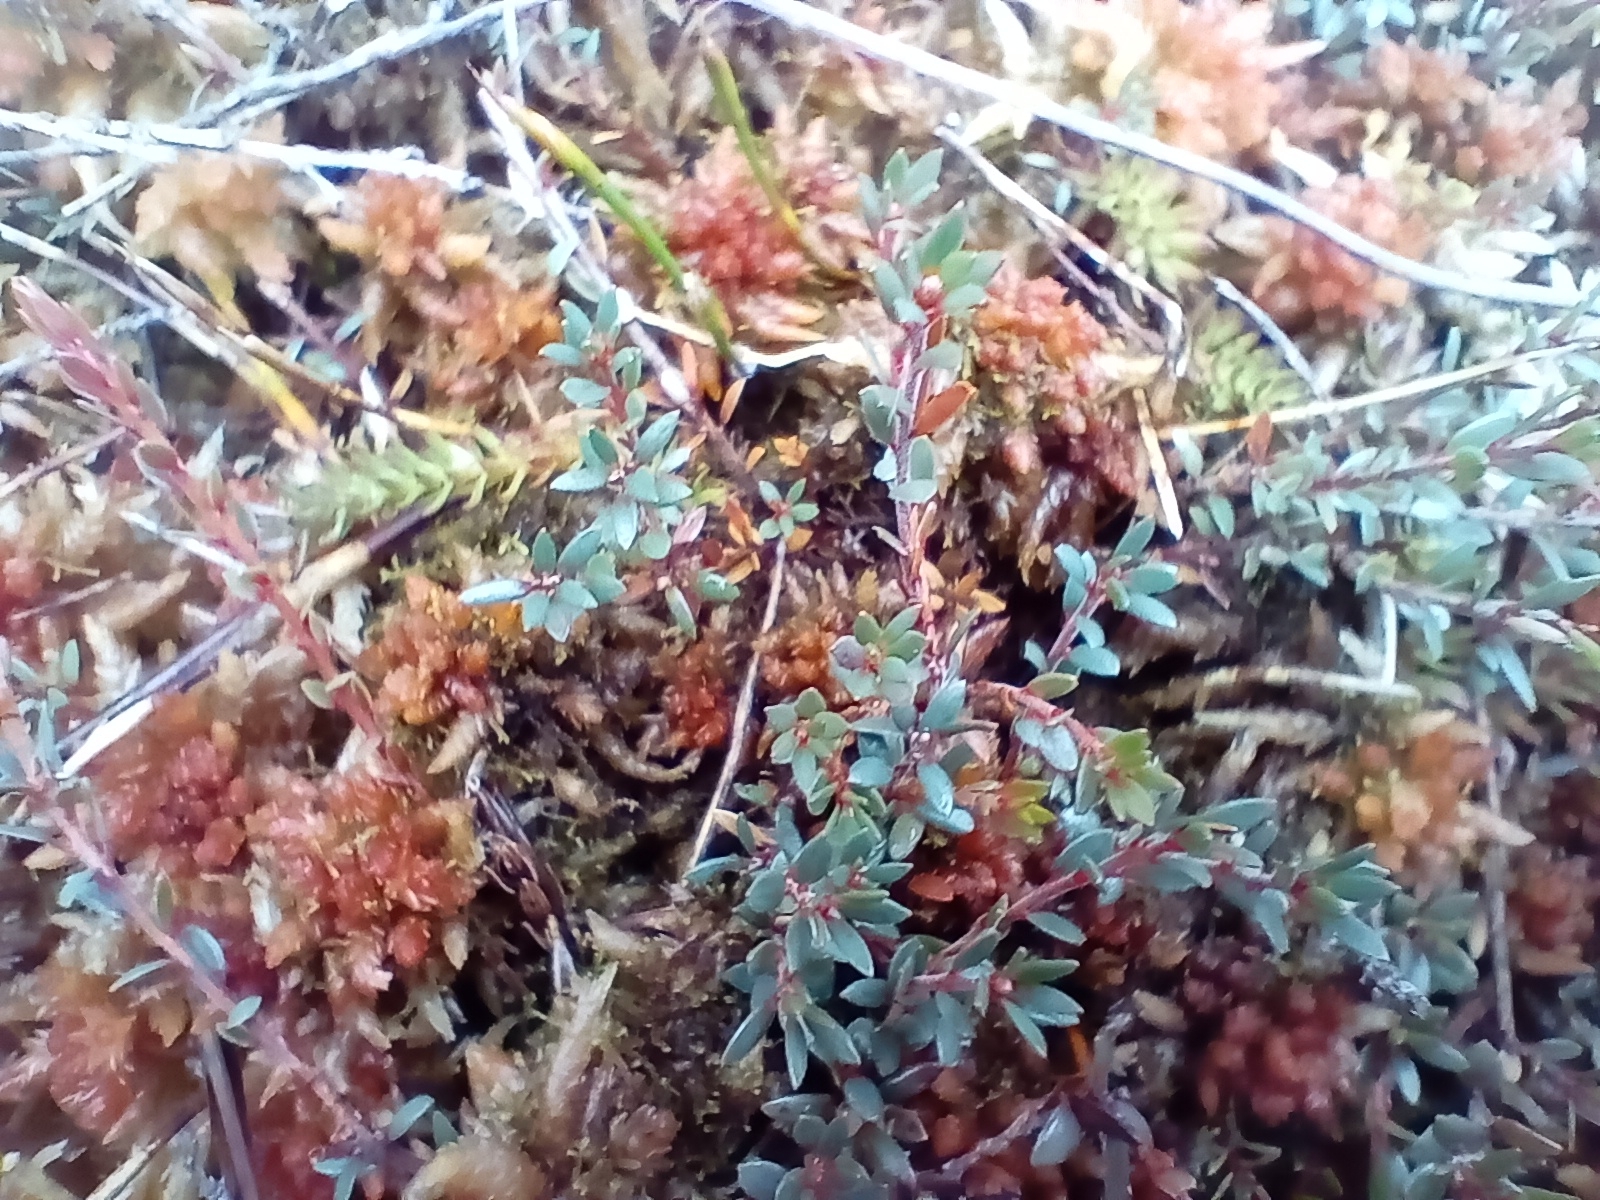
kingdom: Plantae
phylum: Tracheophyta
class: Magnoliopsida
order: Ericales
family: Ericaceae
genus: Pentachondra
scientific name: Pentachondra pumila
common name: Carpet-heath
